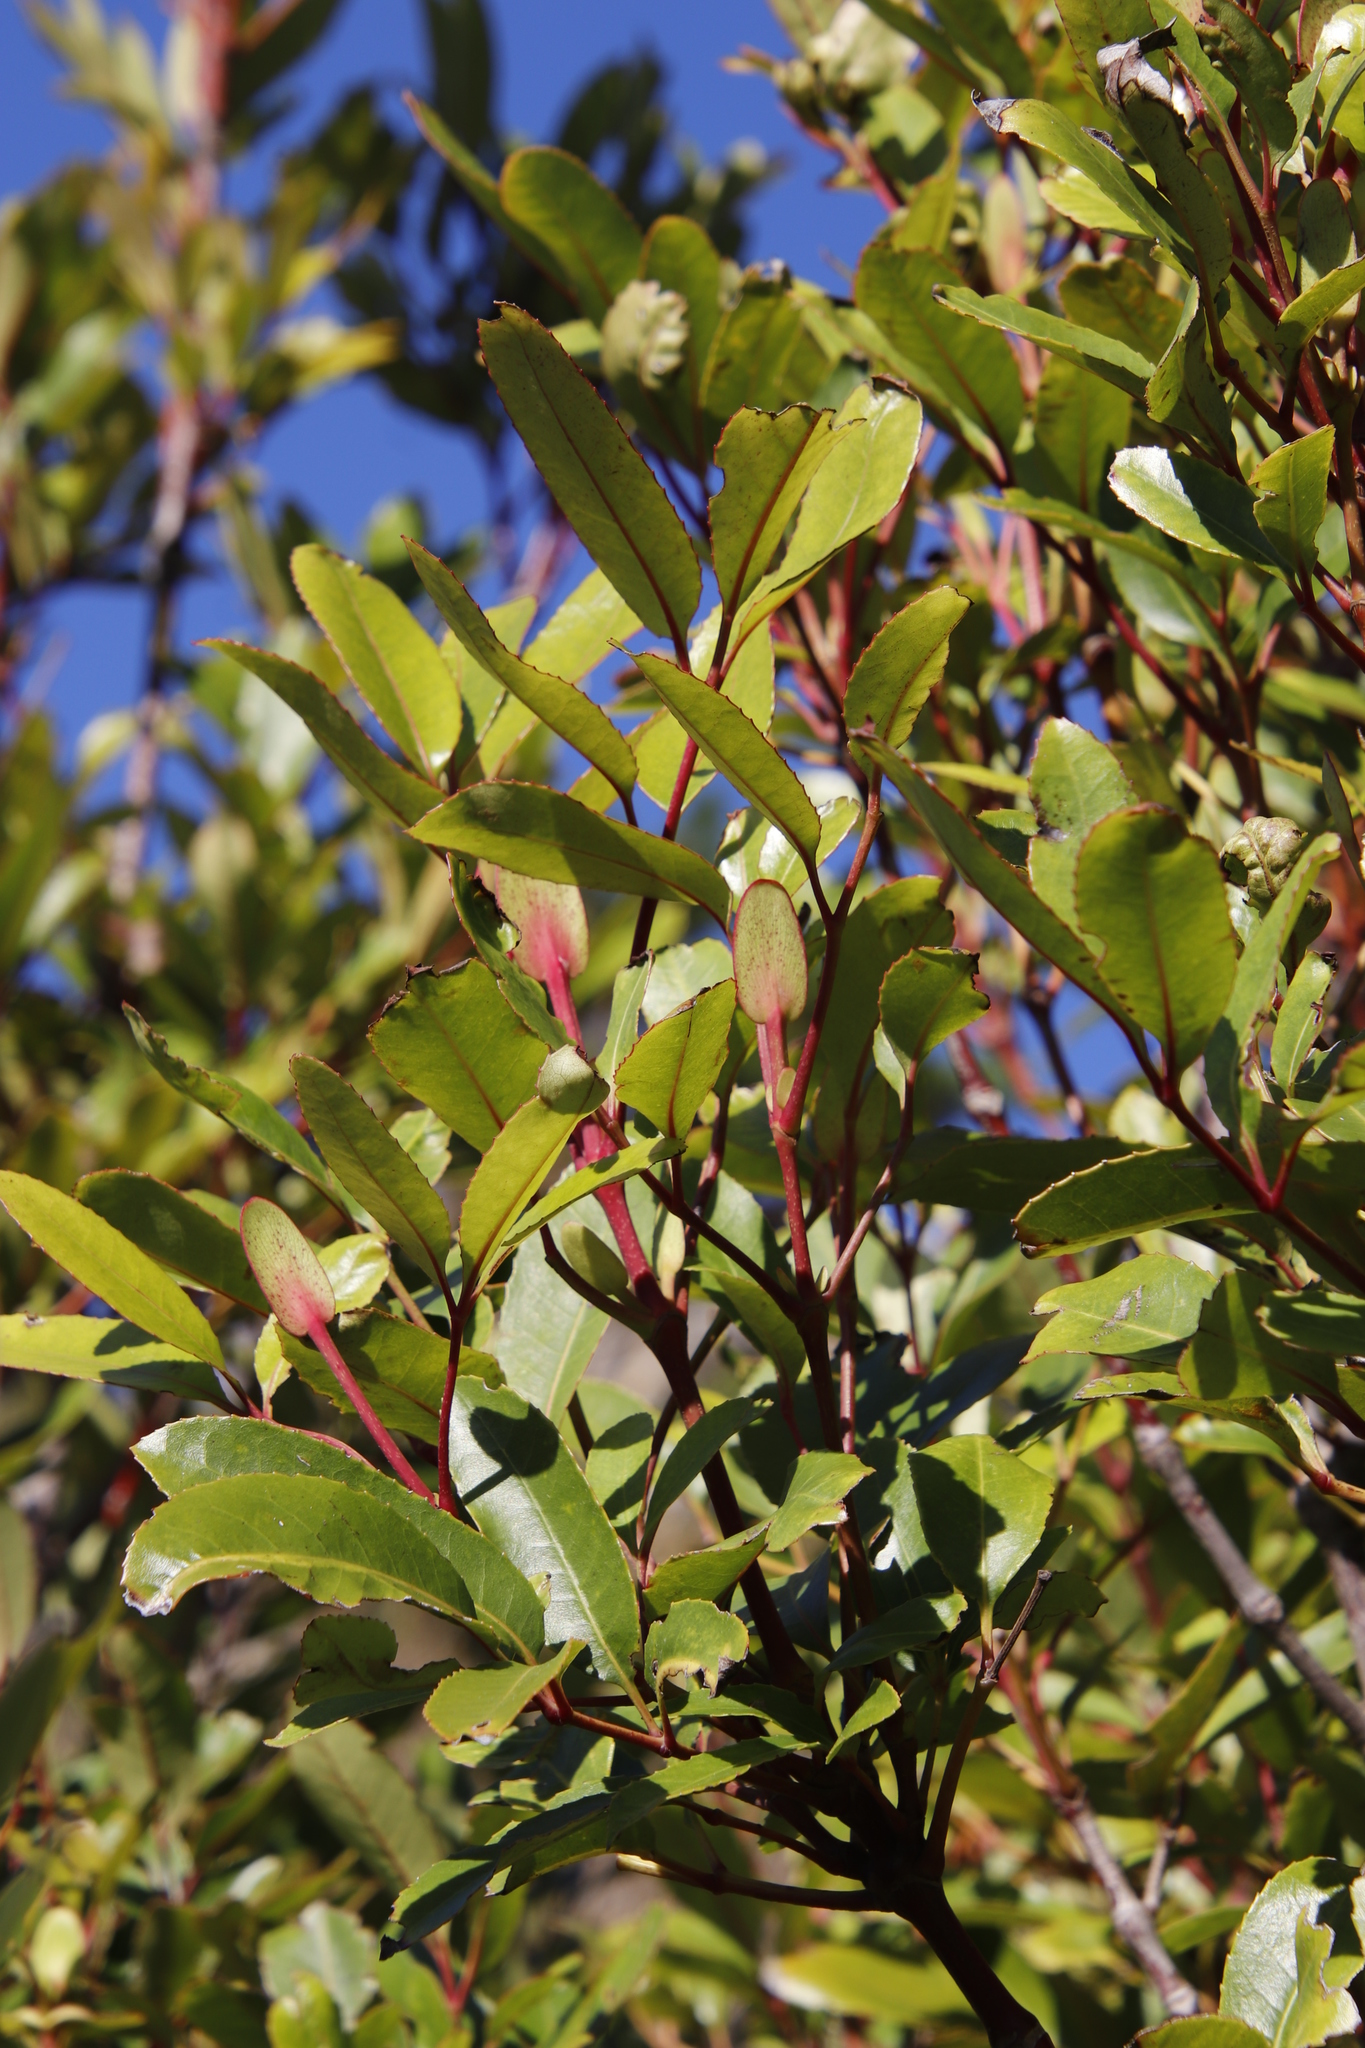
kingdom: Plantae
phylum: Tracheophyta
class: Magnoliopsida
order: Oxalidales
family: Cunoniaceae
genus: Cunonia
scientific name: Cunonia capensis
